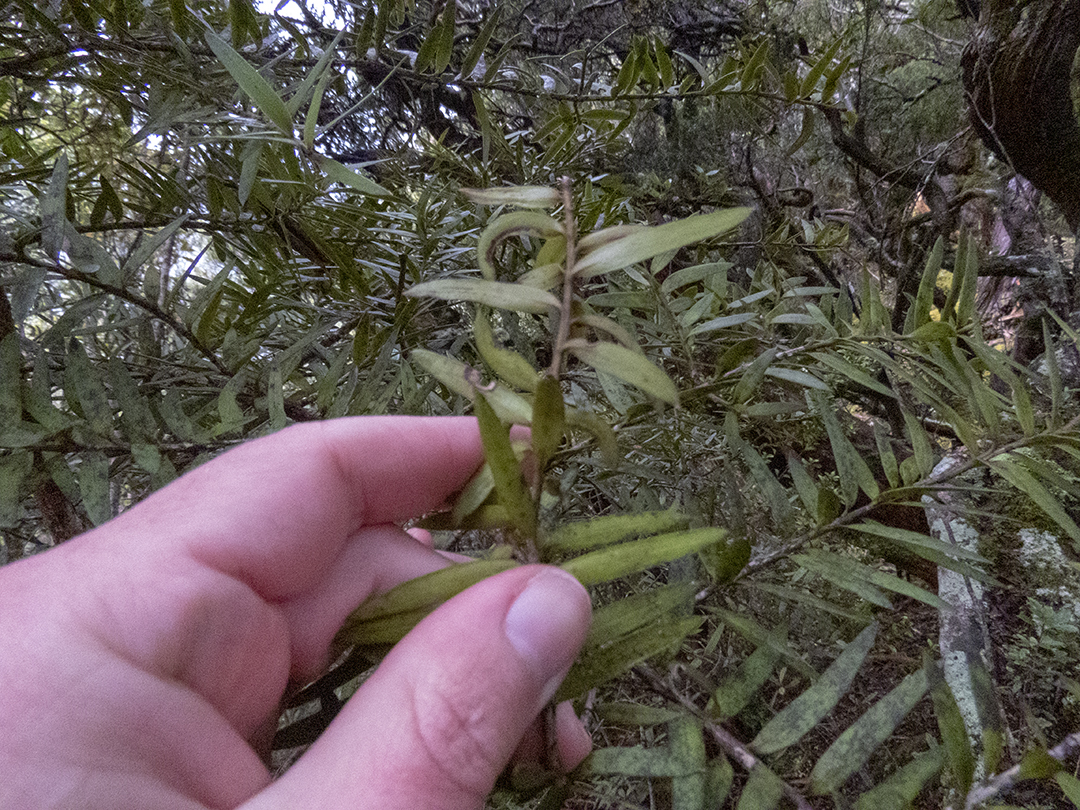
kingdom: Plantae
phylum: Tracheophyta
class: Pinopsida
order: Pinales
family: Podocarpaceae
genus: Podocarpus
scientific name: Podocarpus laetus
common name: Hall's totara
